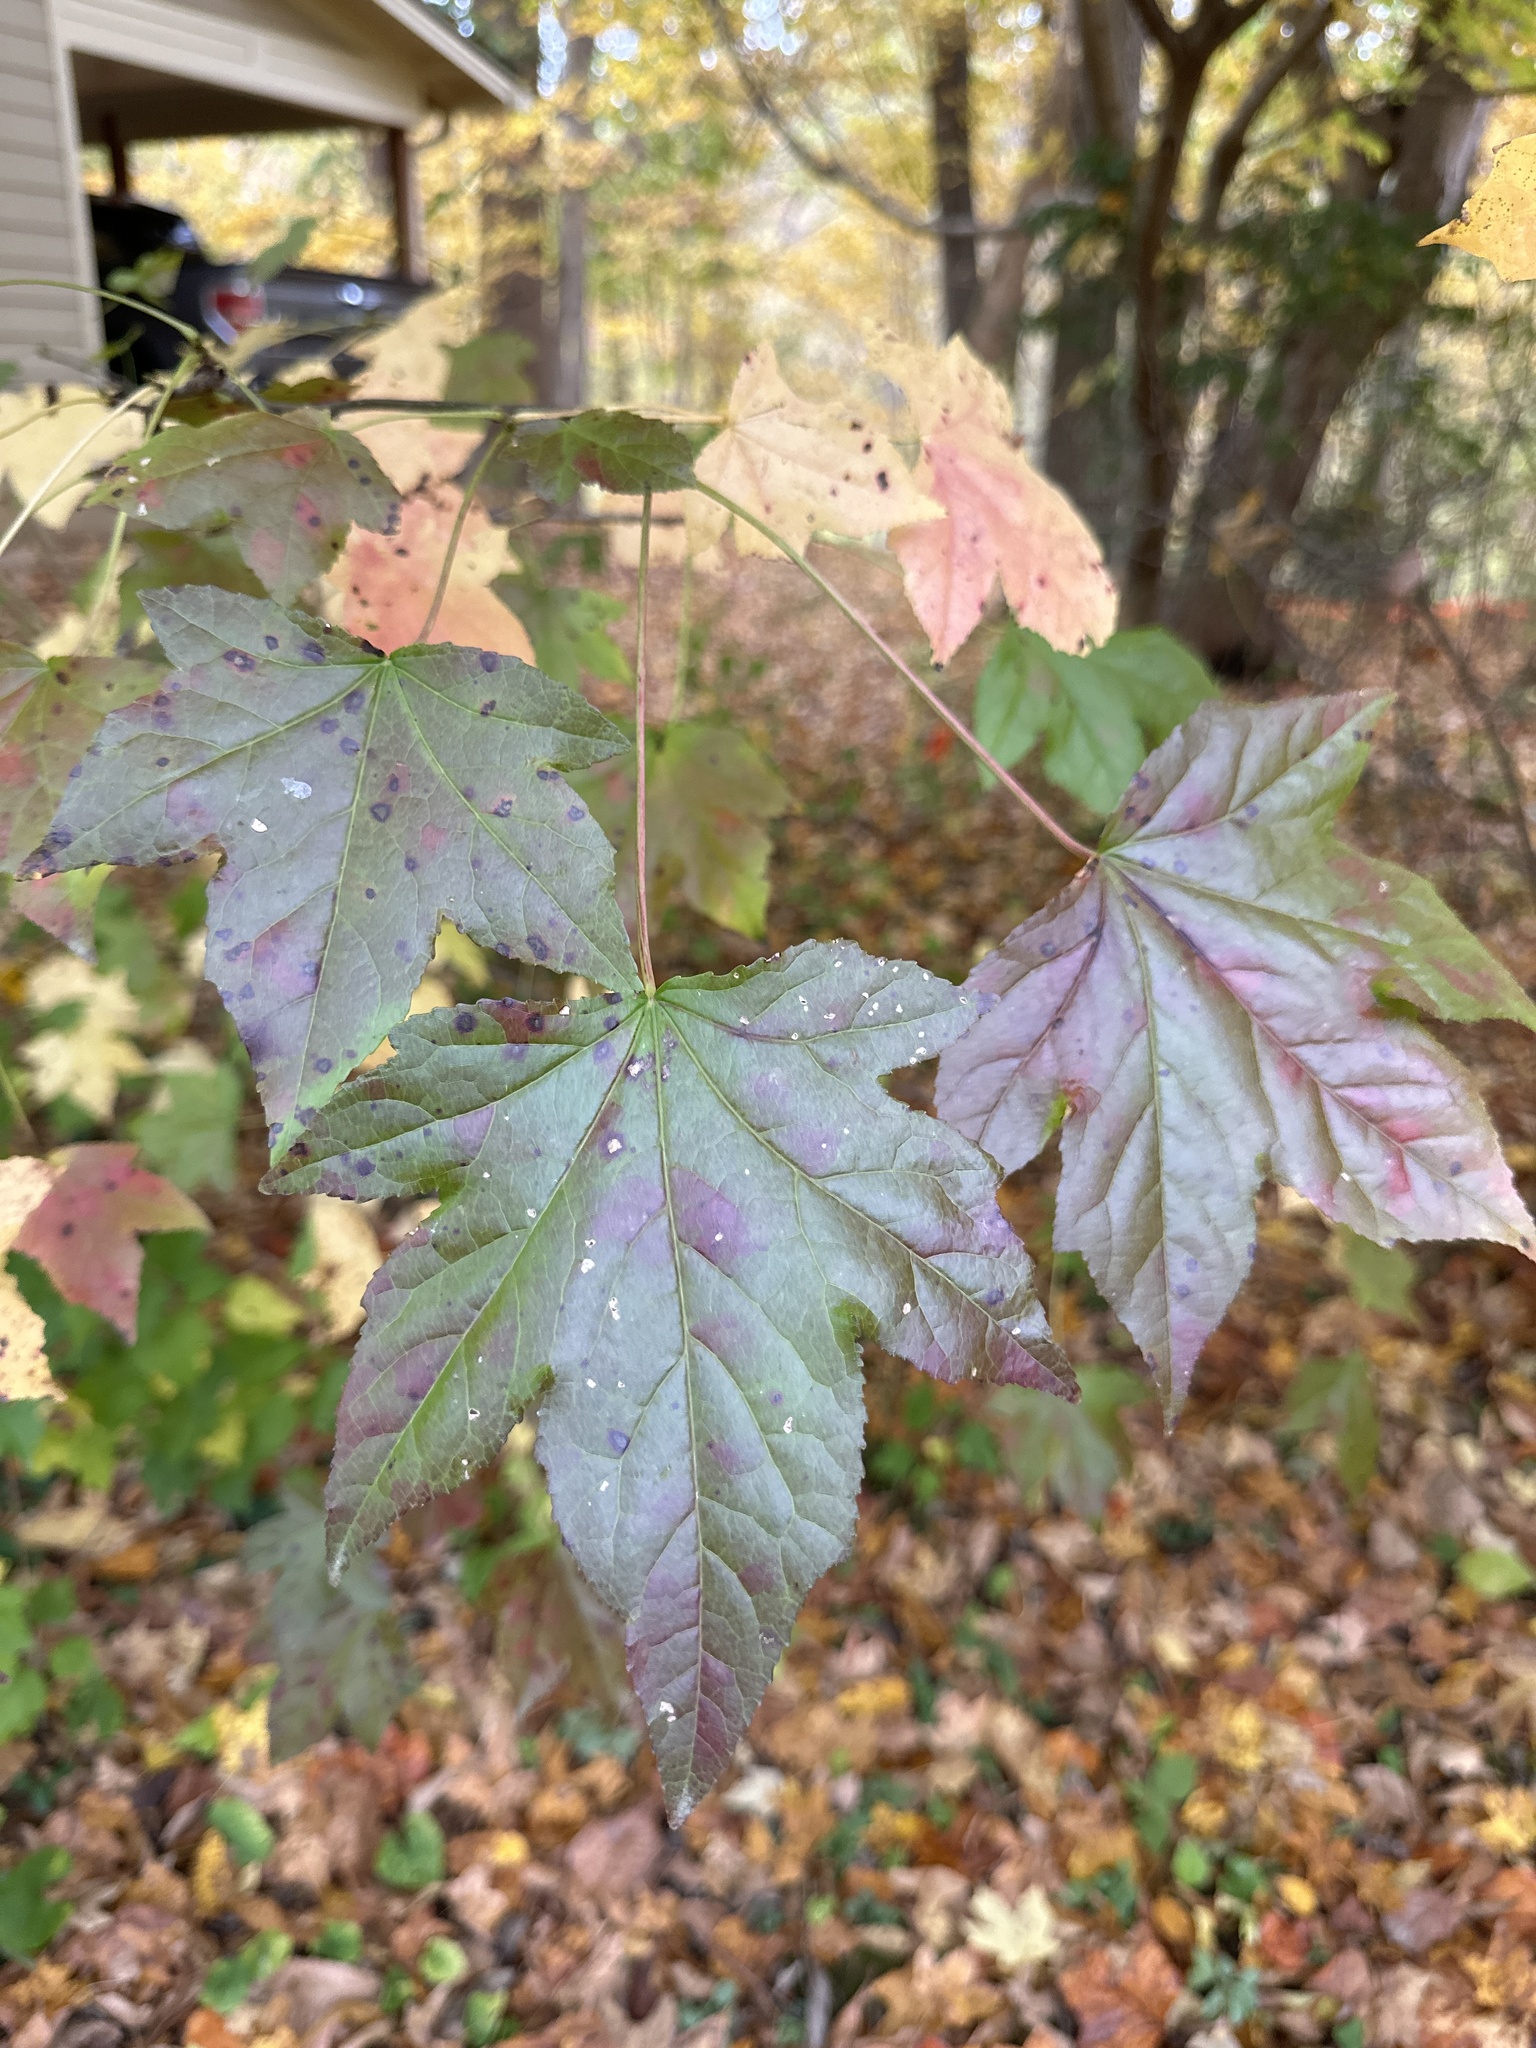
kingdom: Plantae
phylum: Tracheophyta
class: Magnoliopsida
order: Saxifragales
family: Altingiaceae
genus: Liquidambar
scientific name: Liquidambar styraciflua
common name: Sweet gum
